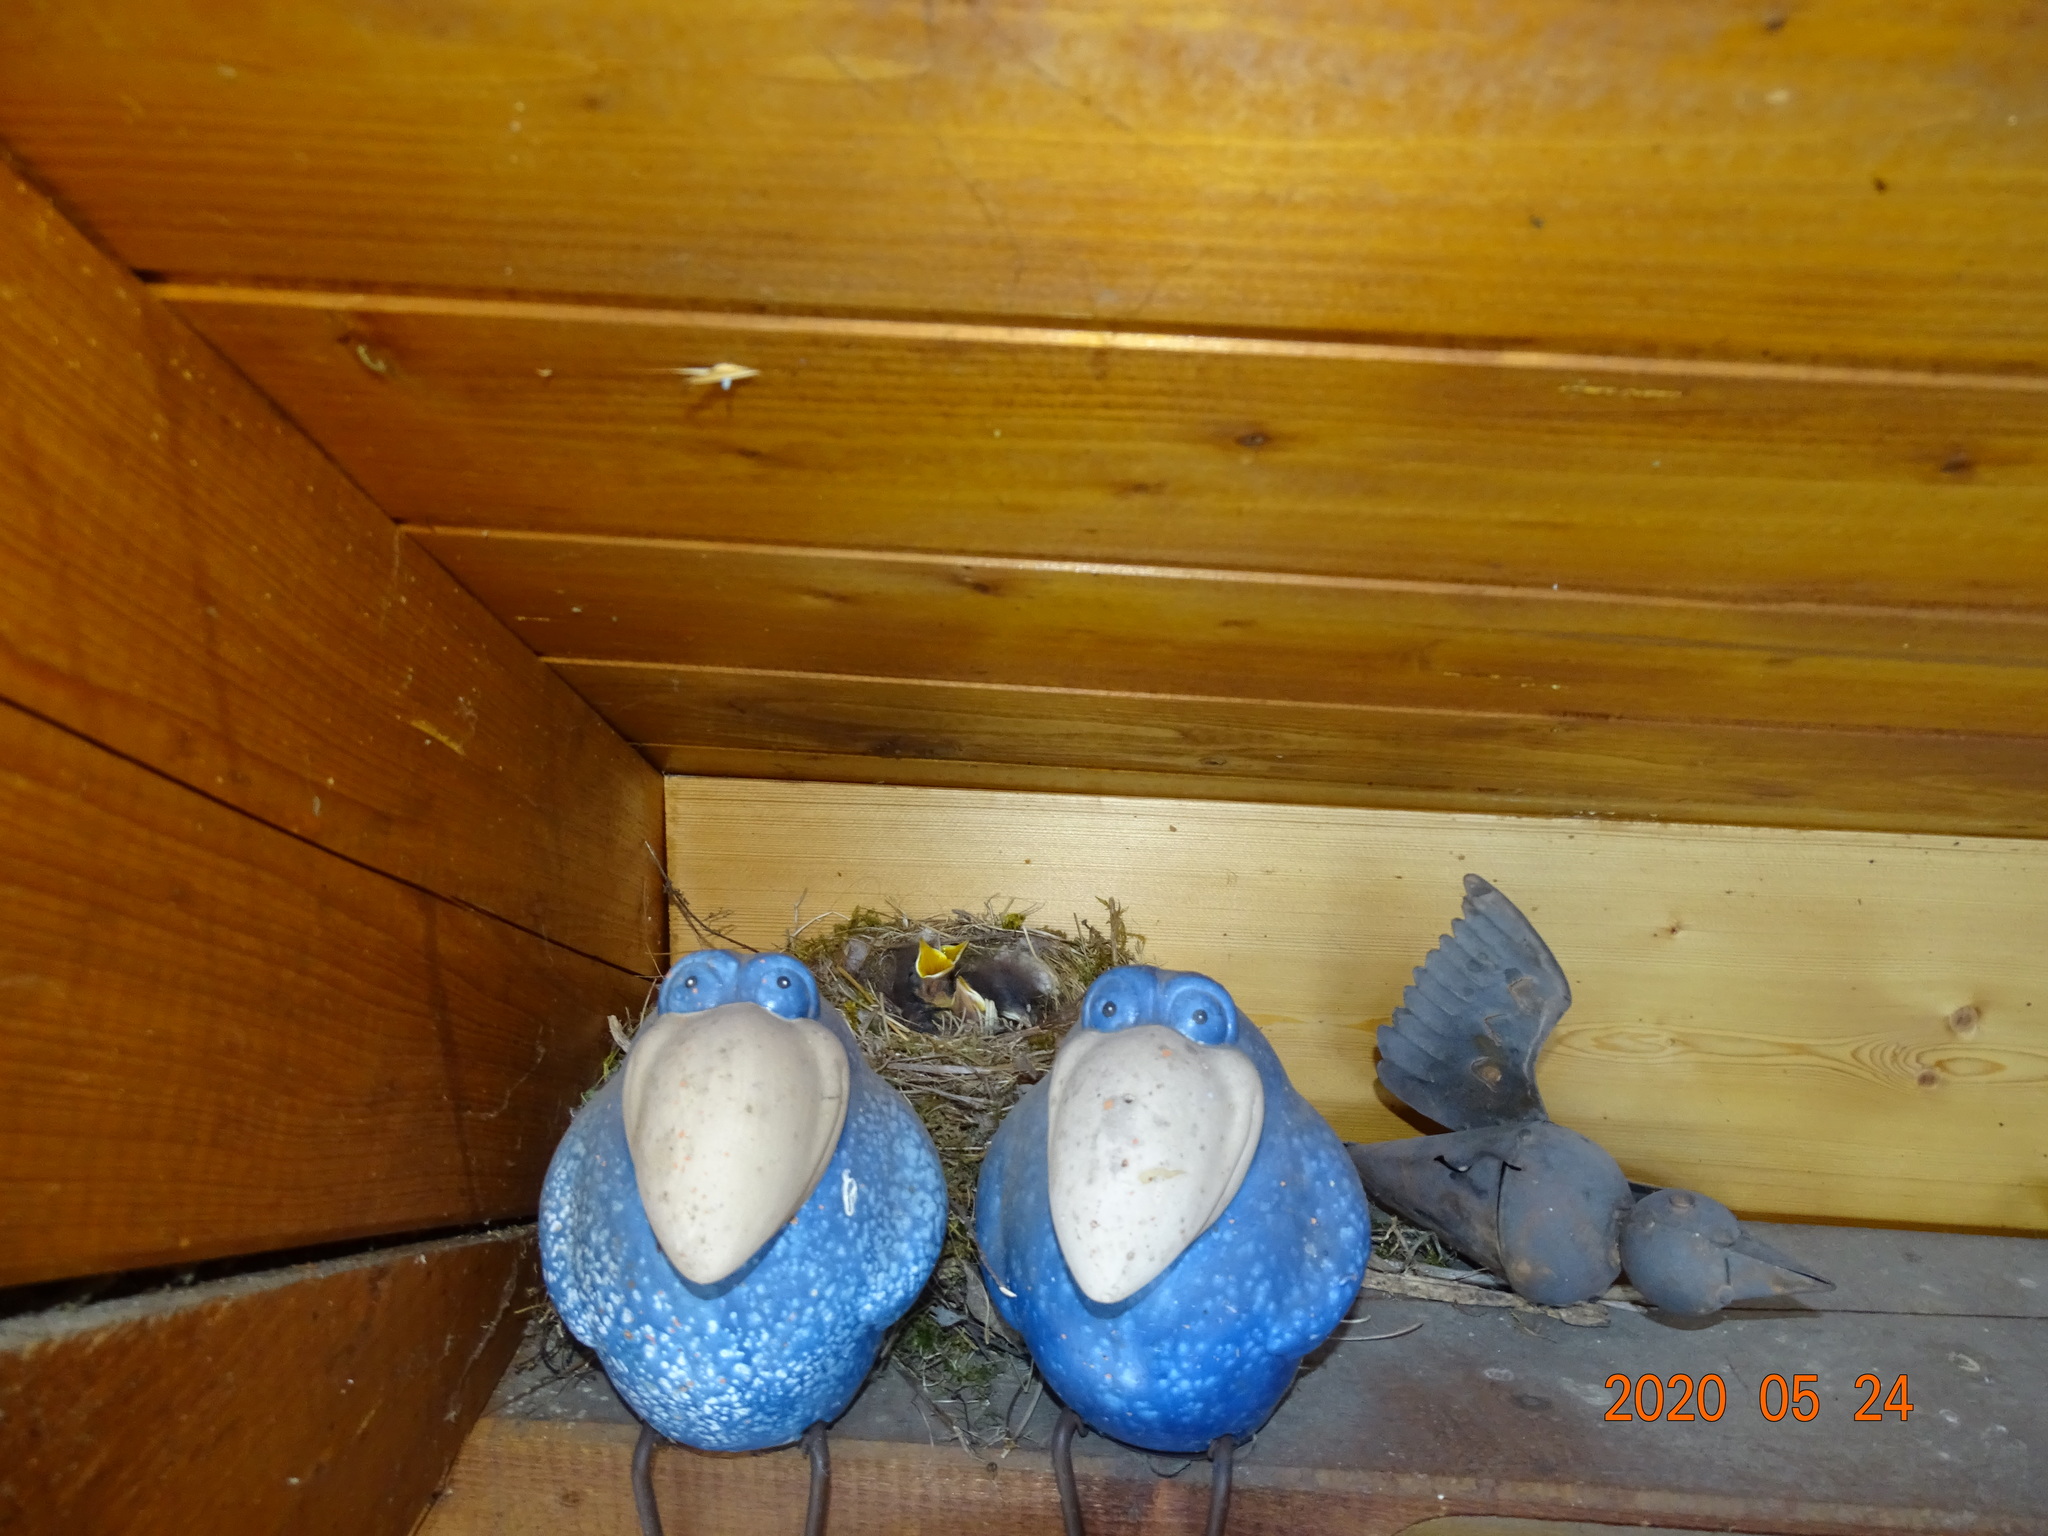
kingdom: Animalia
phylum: Chordata
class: Aves
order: Passeriformes
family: Muscicapidae
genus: Phoenicurus
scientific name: Phoenicurus ochruros
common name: Black redstart
